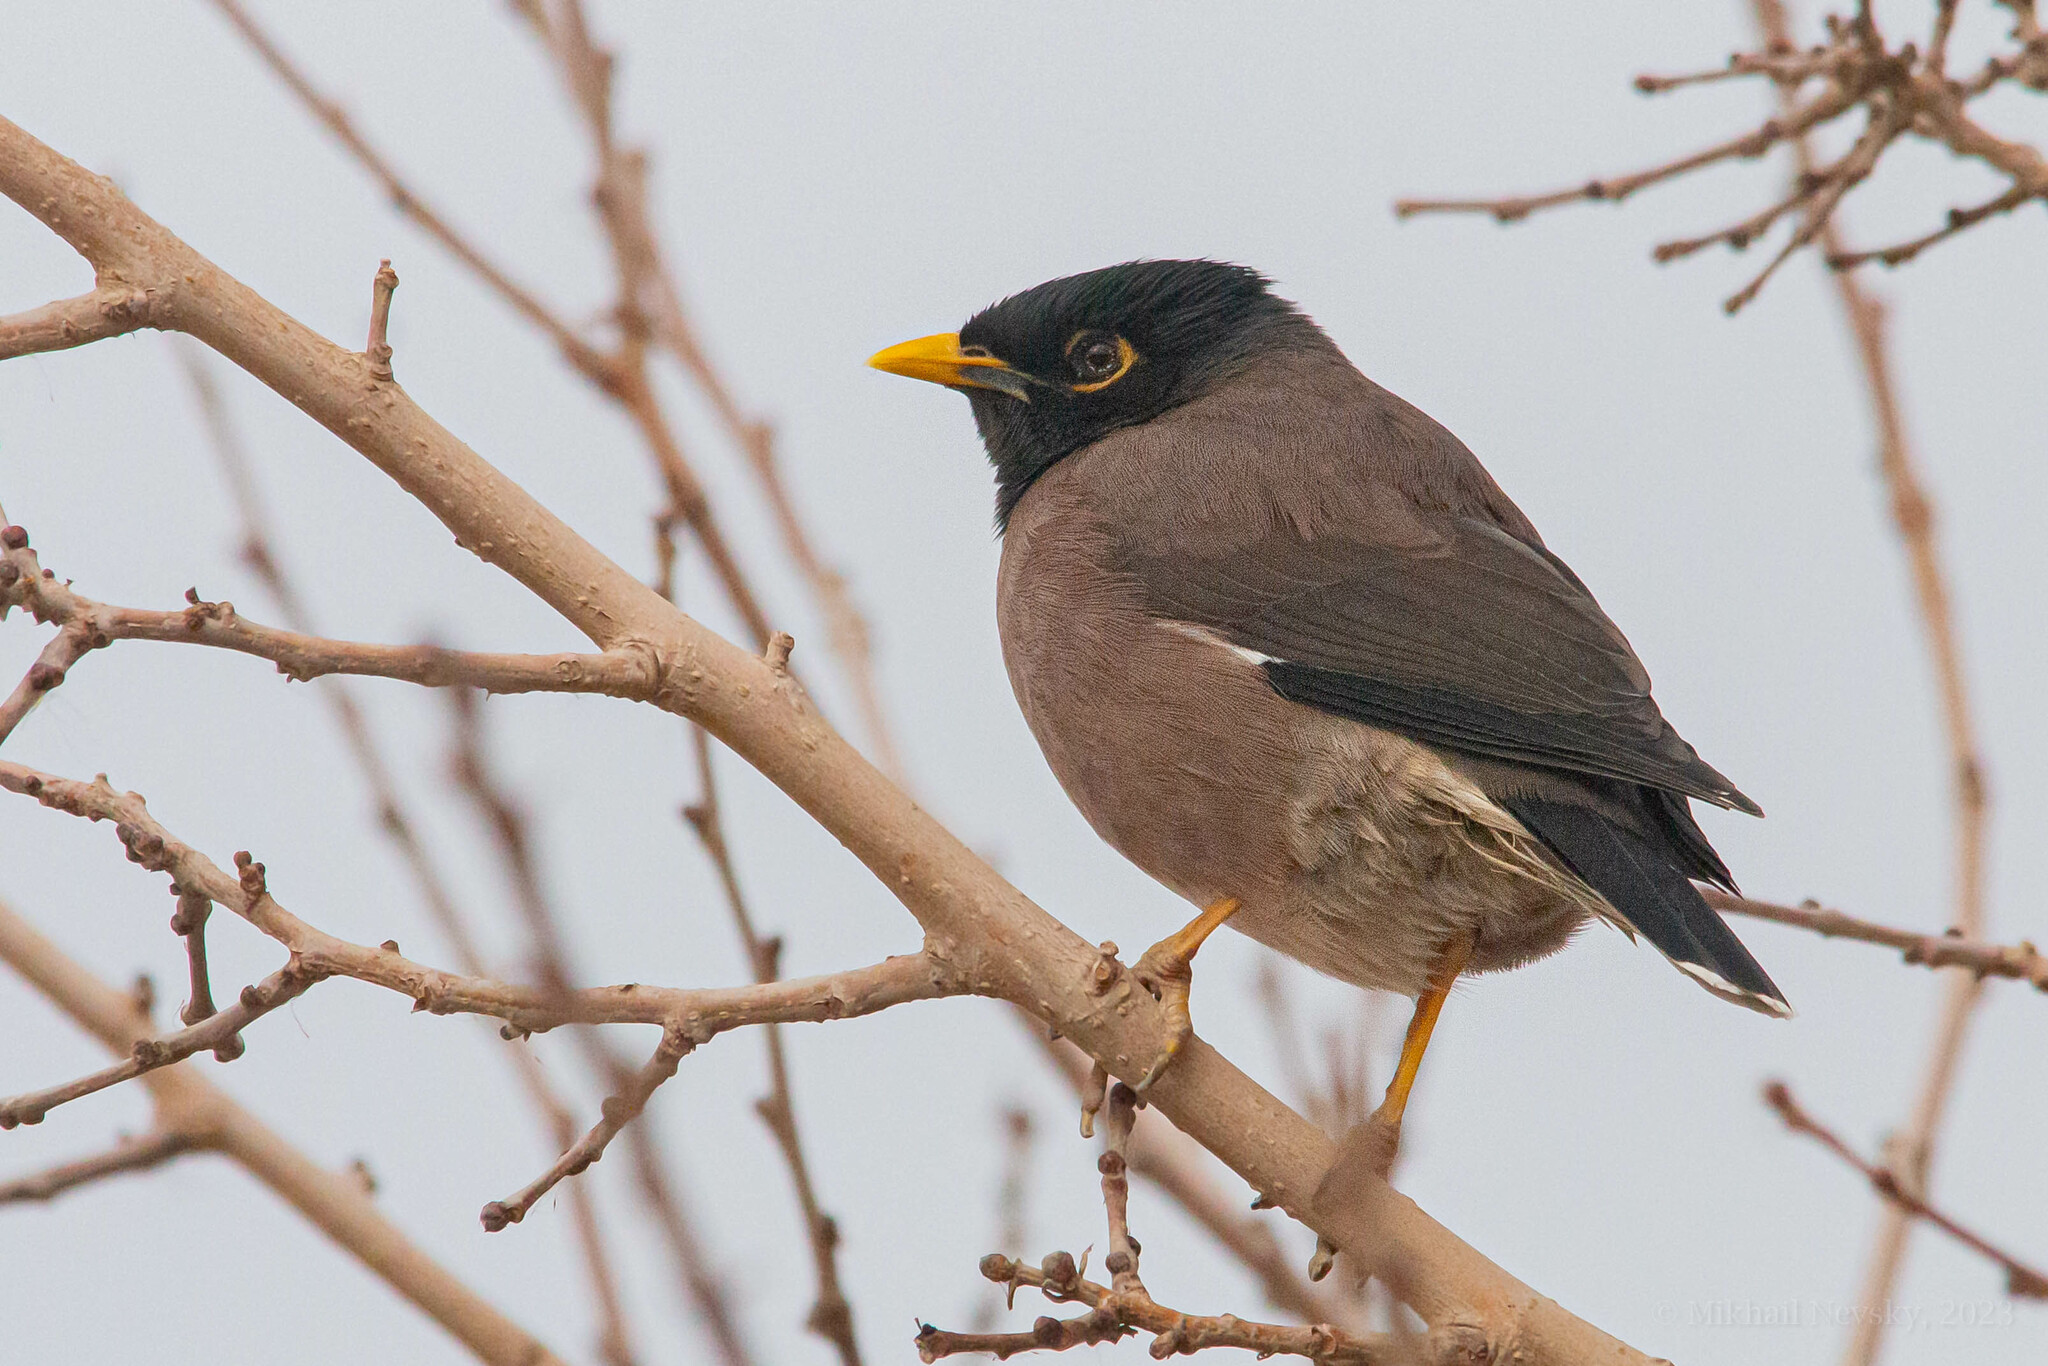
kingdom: Animalia
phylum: Chordata
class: Aves
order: Passeriformes
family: Sturnidae
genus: Acridotheres
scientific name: Acridotheres tristis
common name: Common myna
